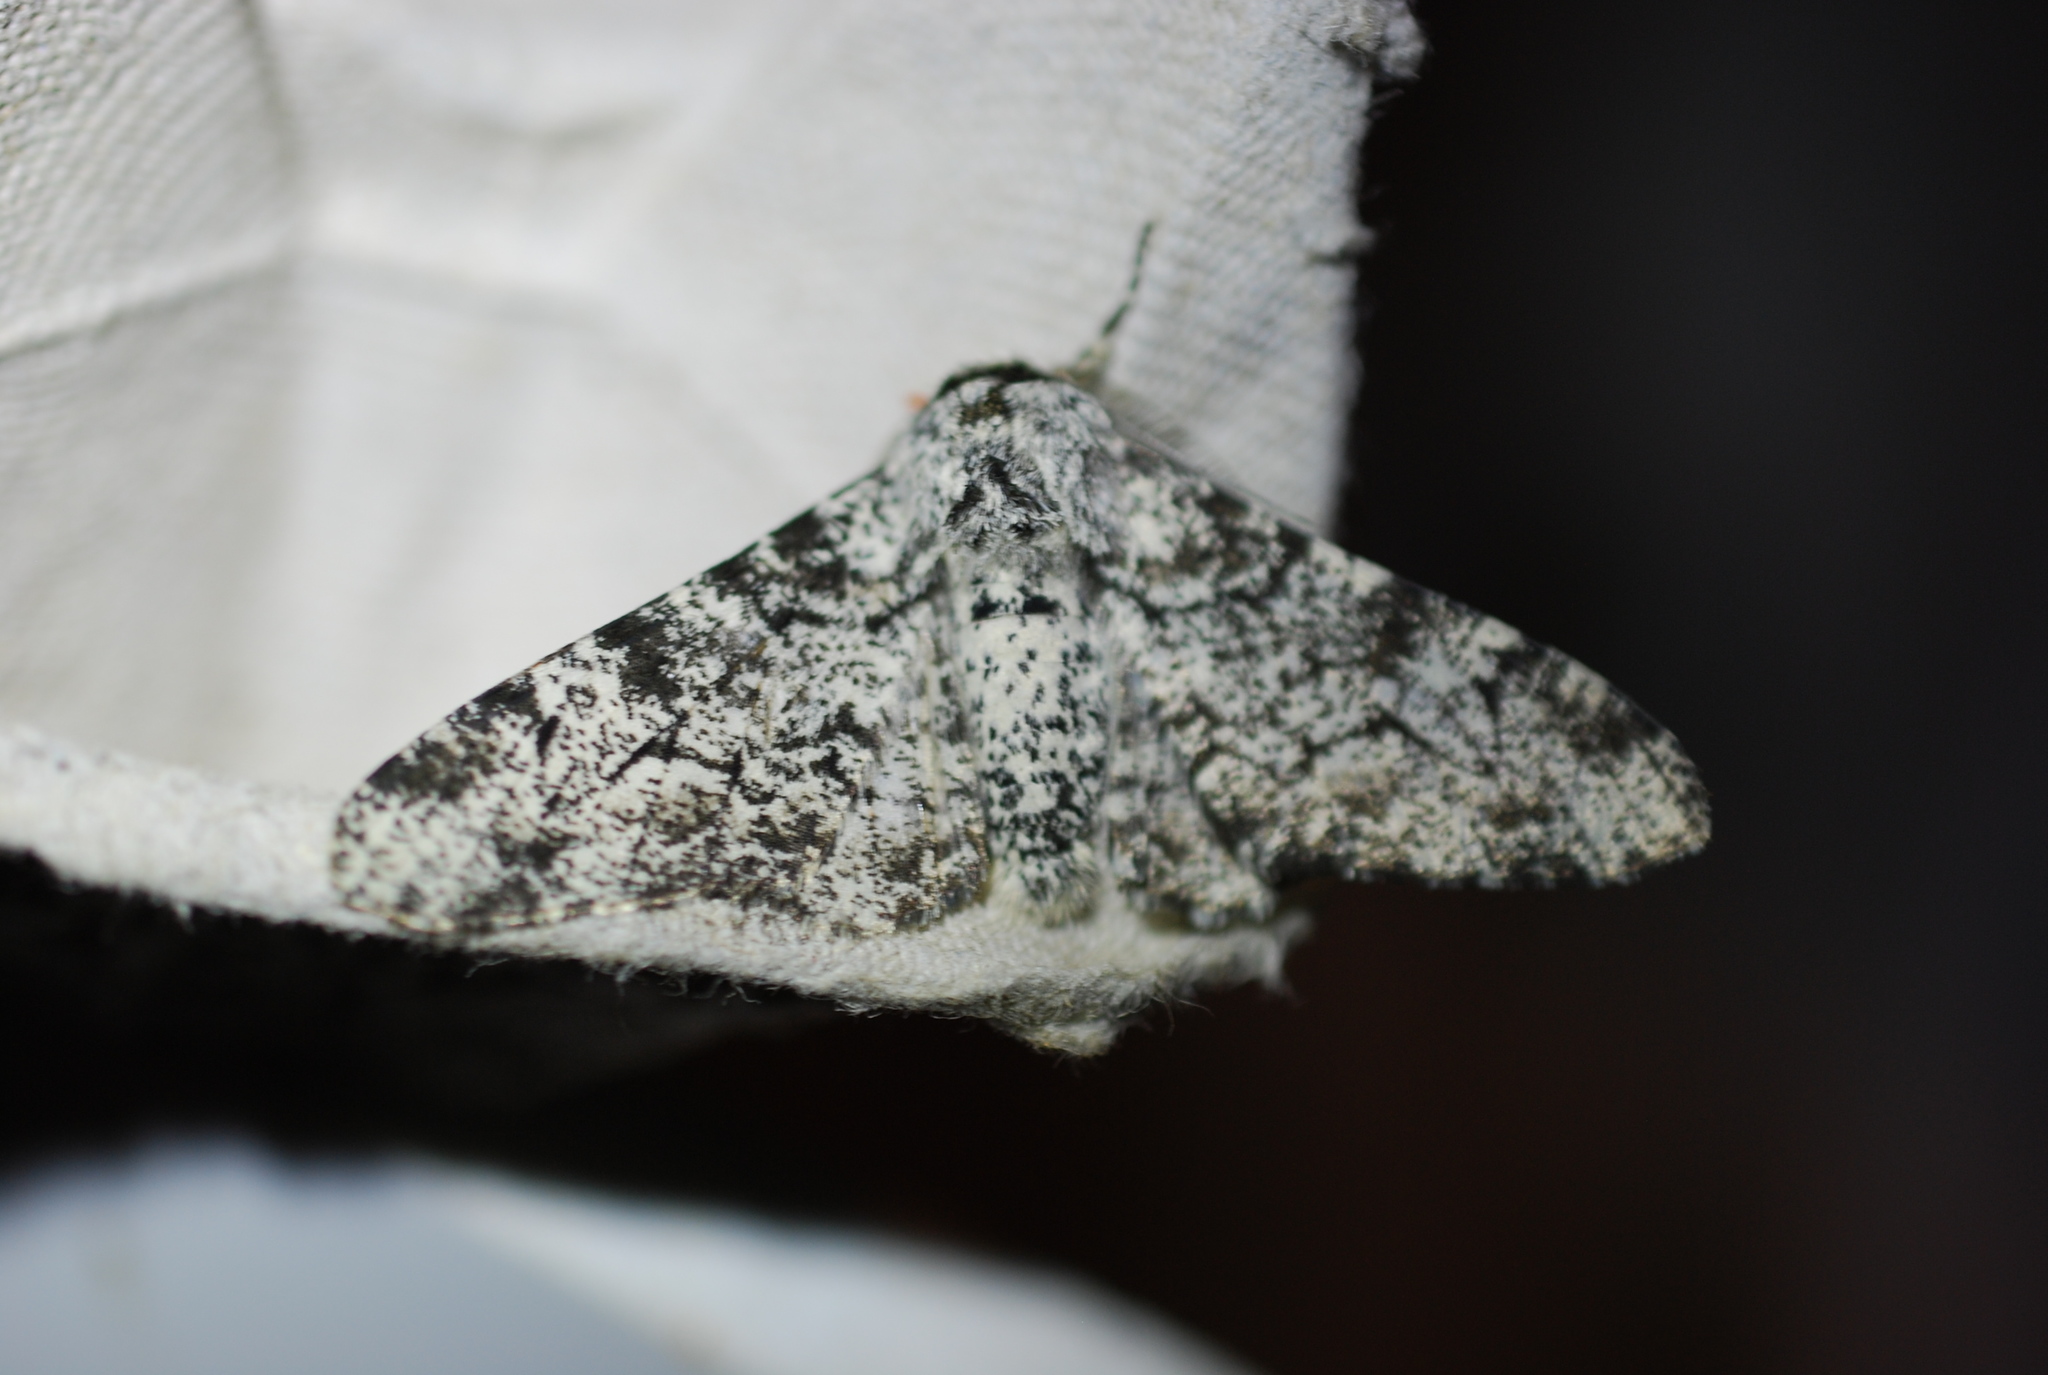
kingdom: Animalia
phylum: Arthropoda
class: Insecta
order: Lepidoptera
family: Geometridae
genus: Biston
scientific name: Biston betularia
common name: Peppered moth
